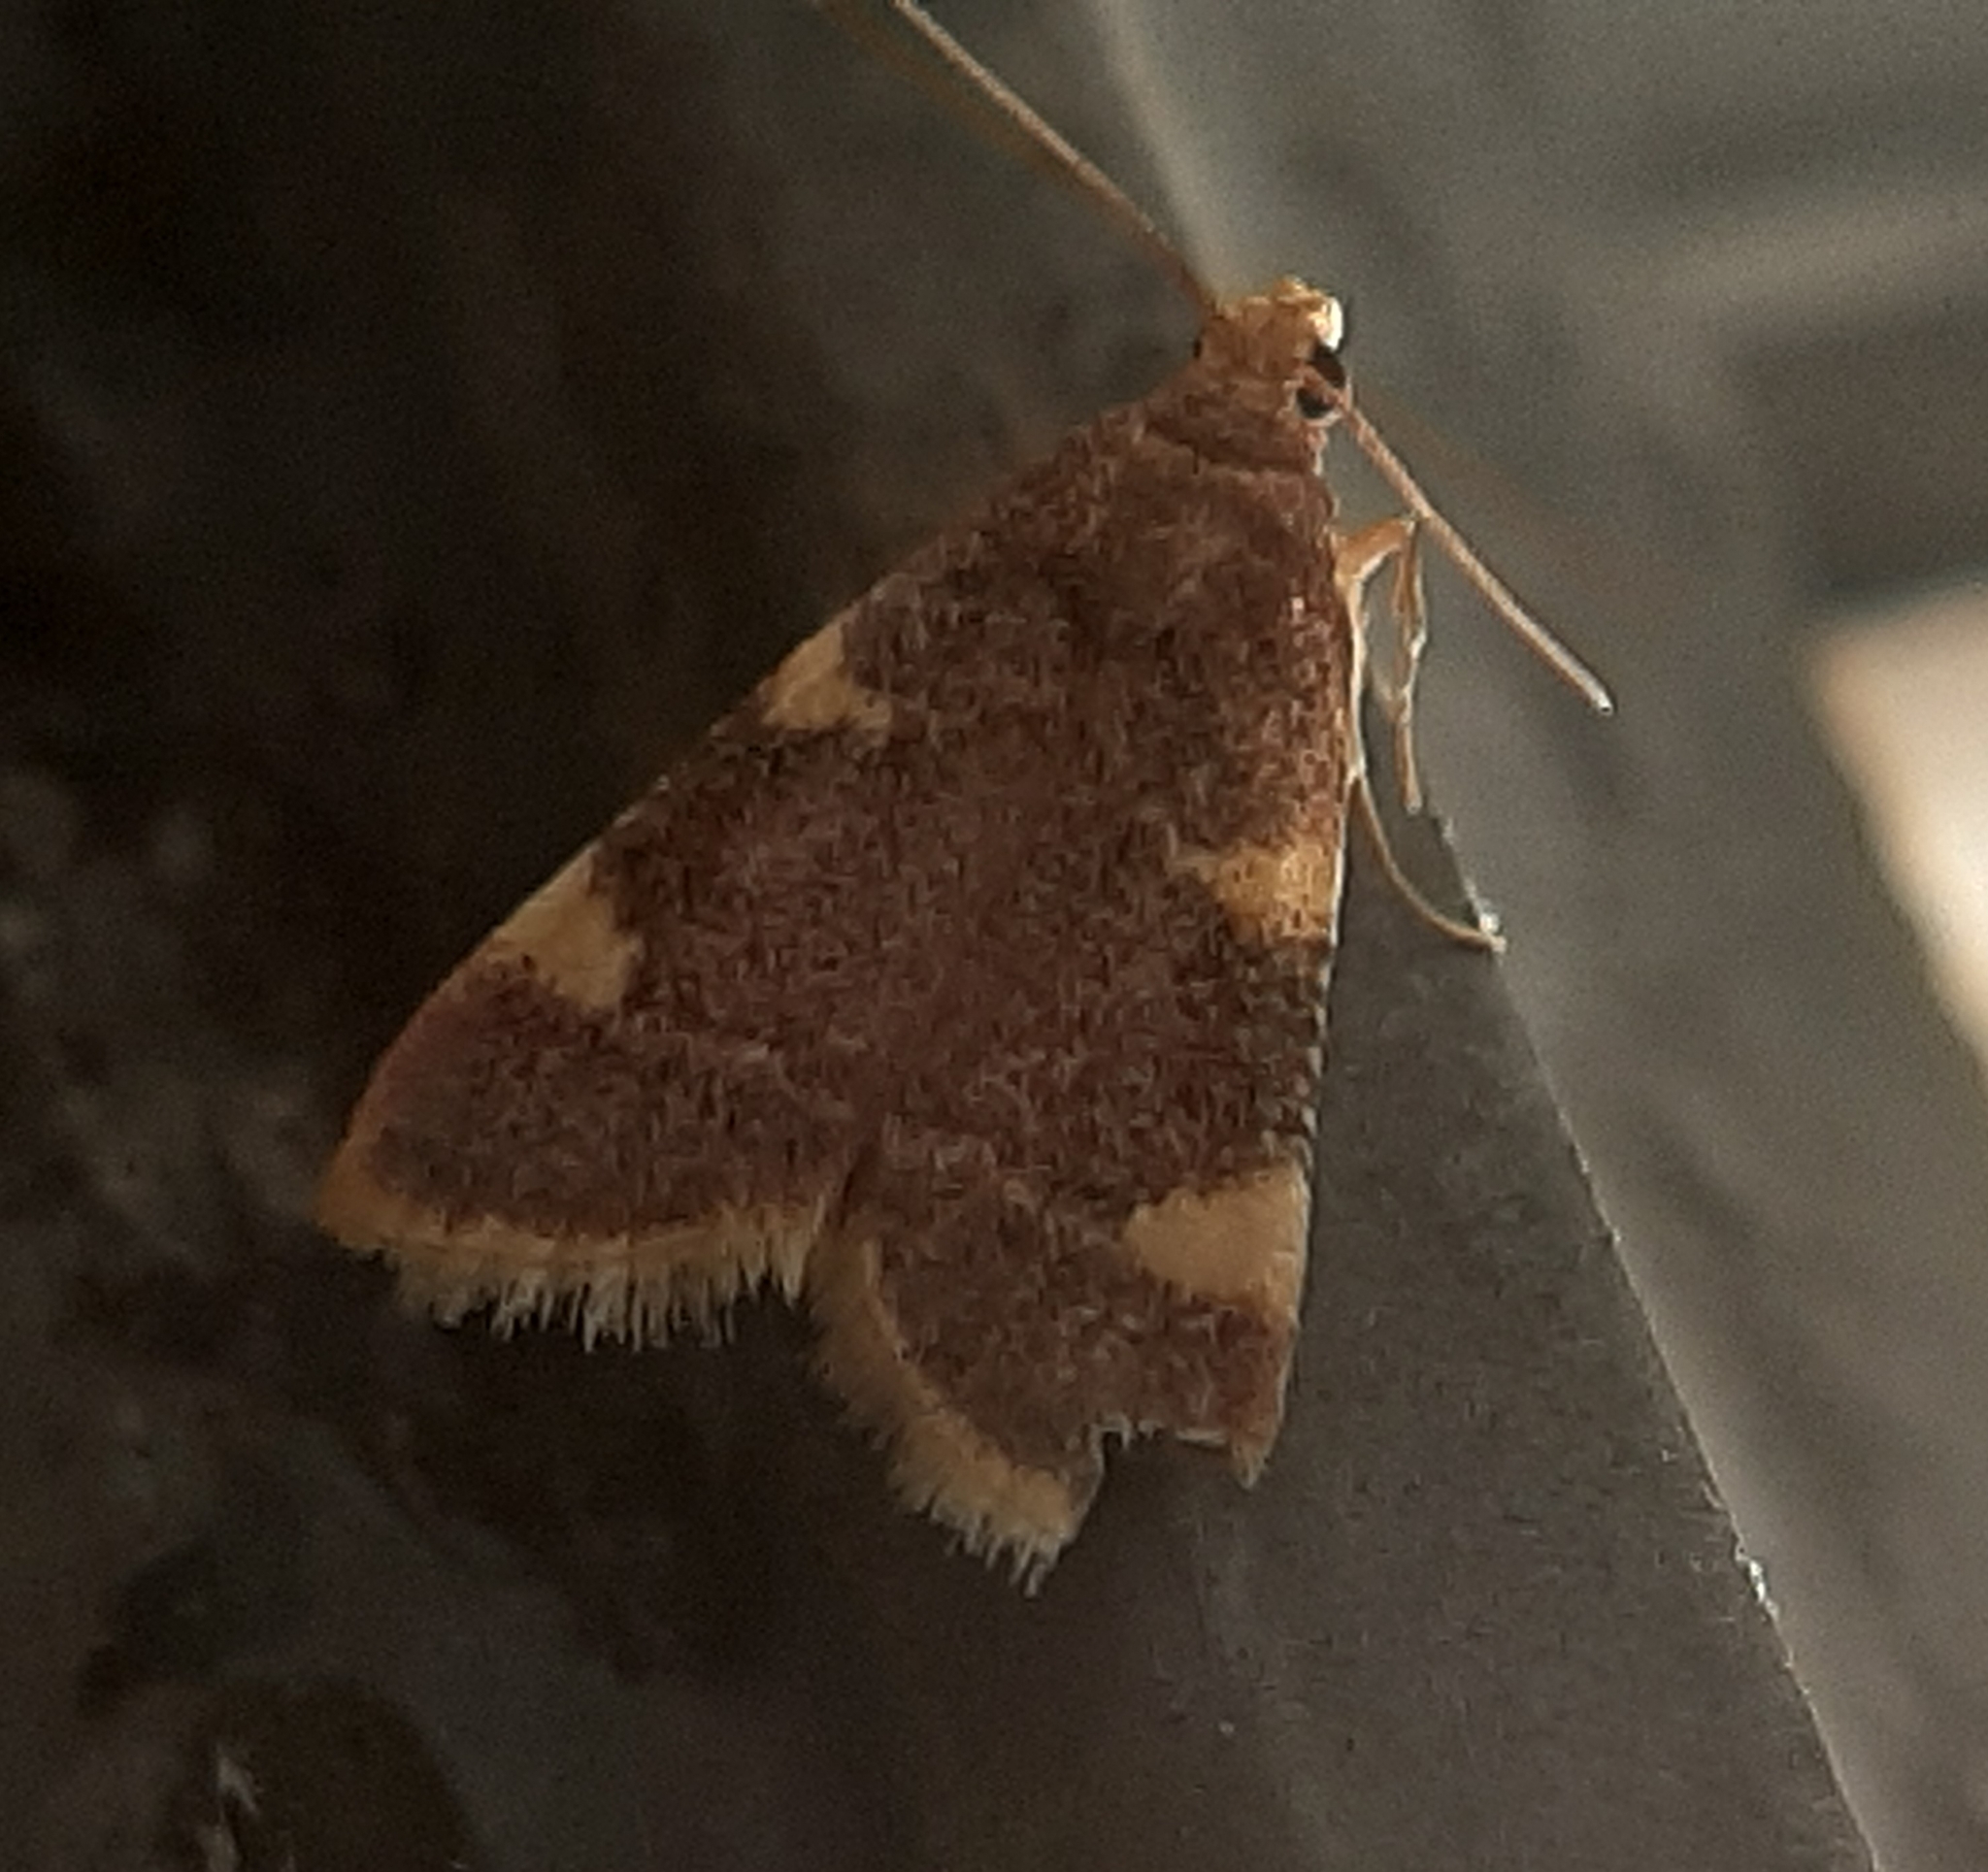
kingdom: Animalia
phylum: Arthropoda
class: Insecta
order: Lepidoptera
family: Pyralidae
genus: Hypsopygia
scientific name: Hypsopygia costalis
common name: Gold triangle
